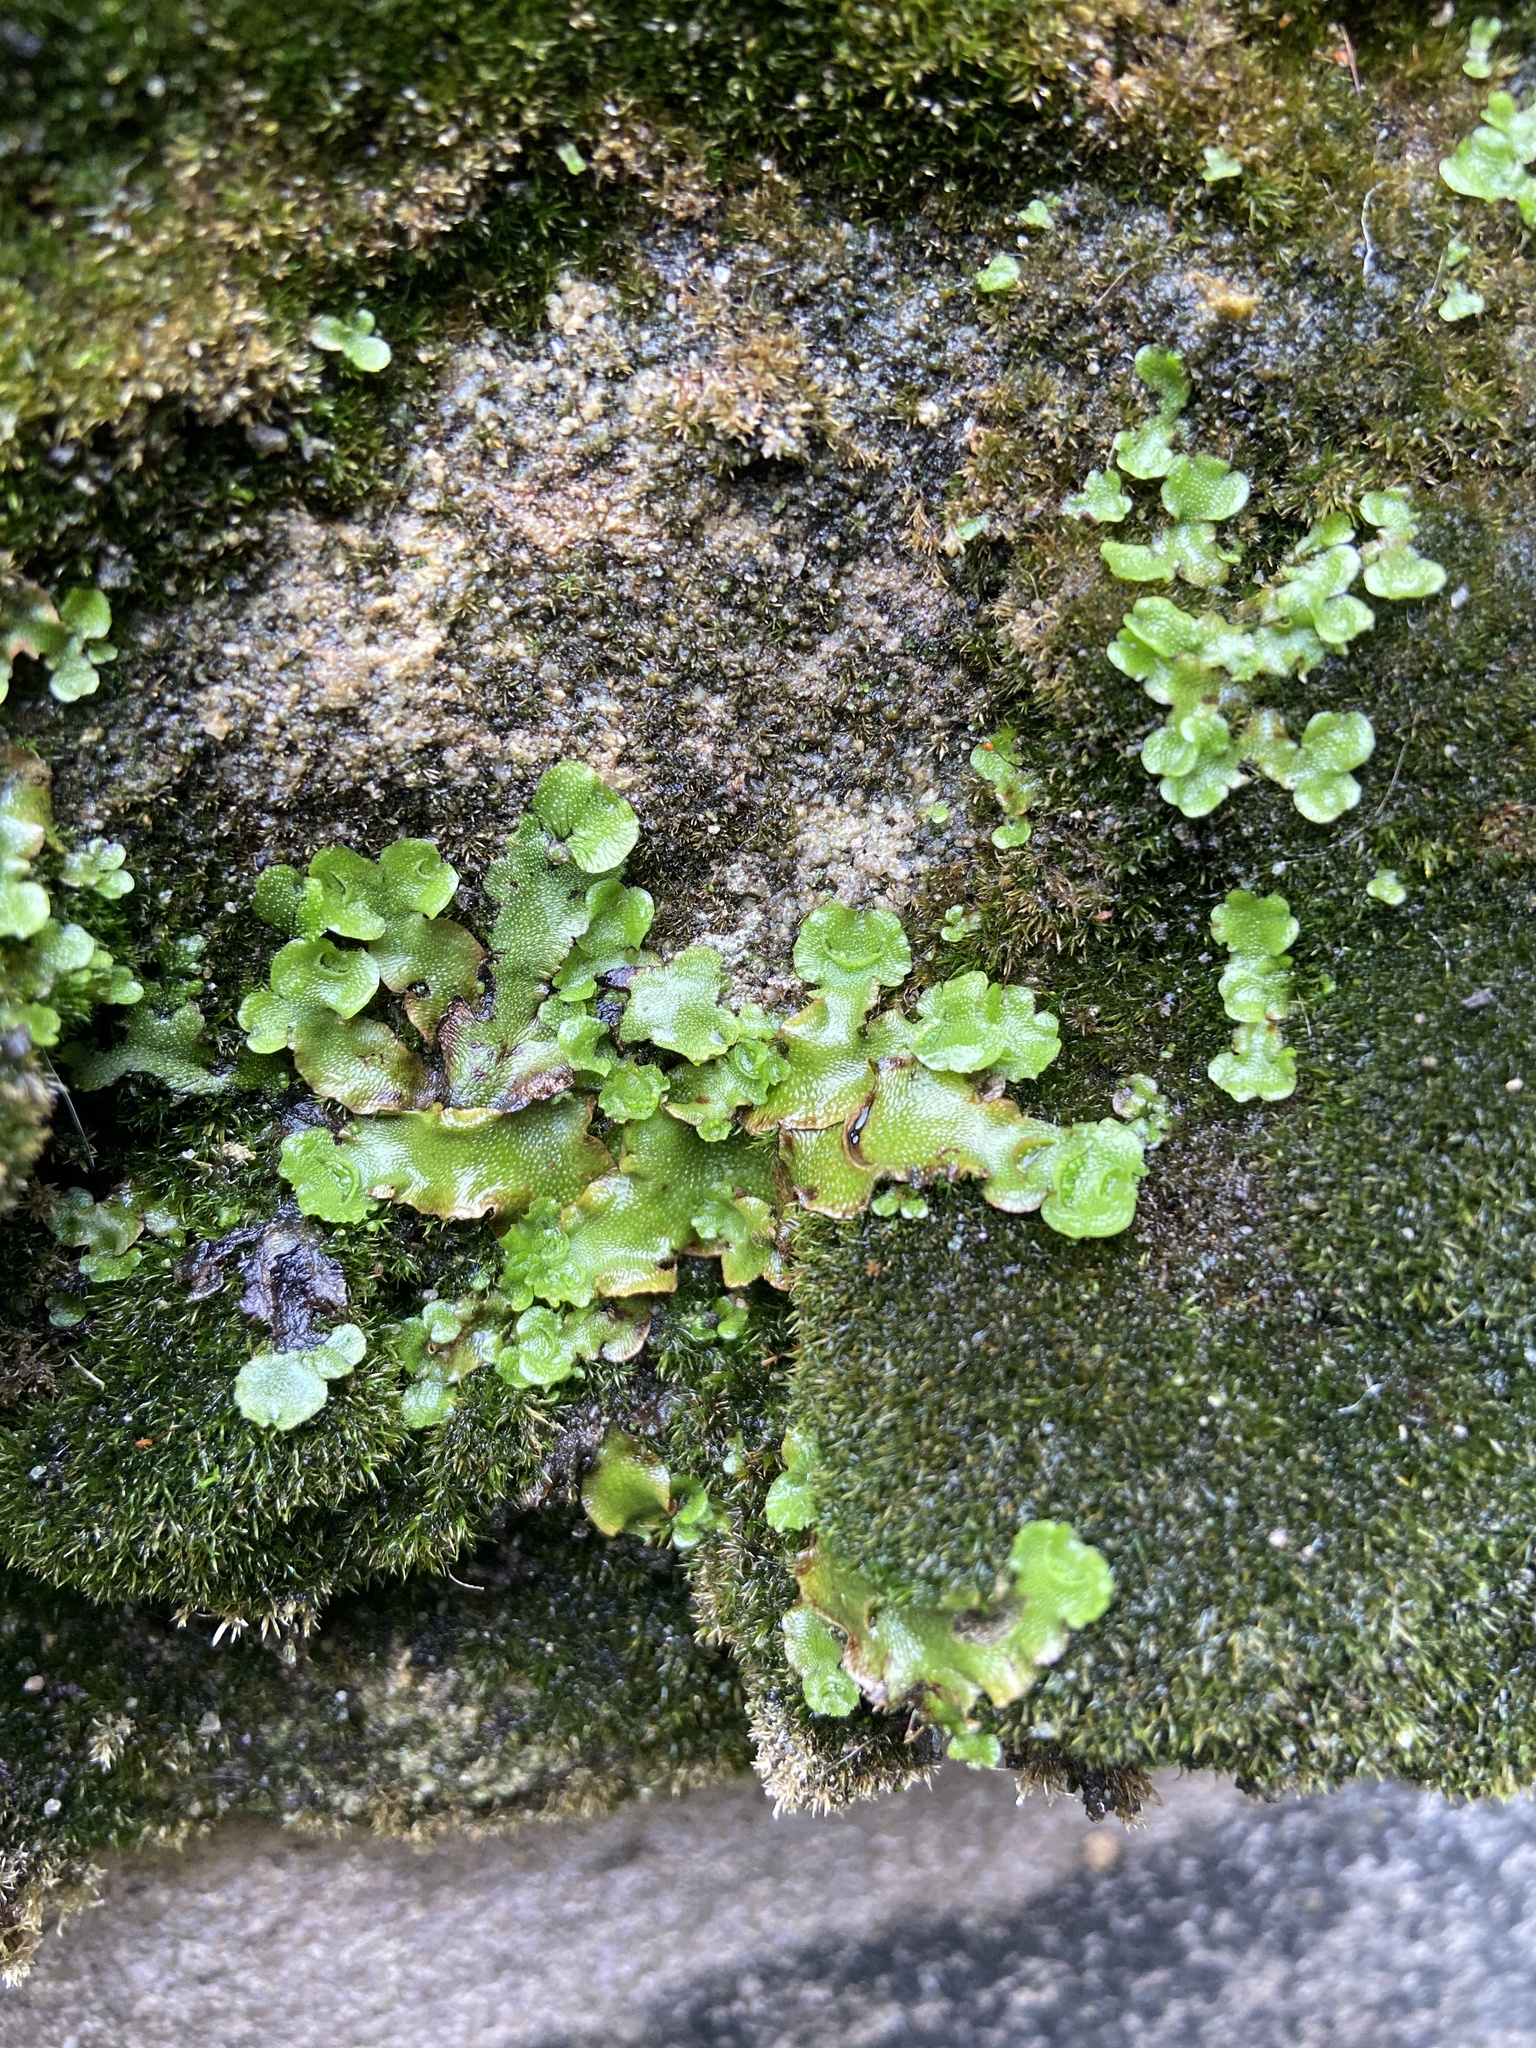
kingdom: Plantae
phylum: Marchantiophyta
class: Marchantiopsida
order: Lunulariales
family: Lunulariaceae
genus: Lunularia
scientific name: Lunularia cruciata
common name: Crescent-cup liverwort
